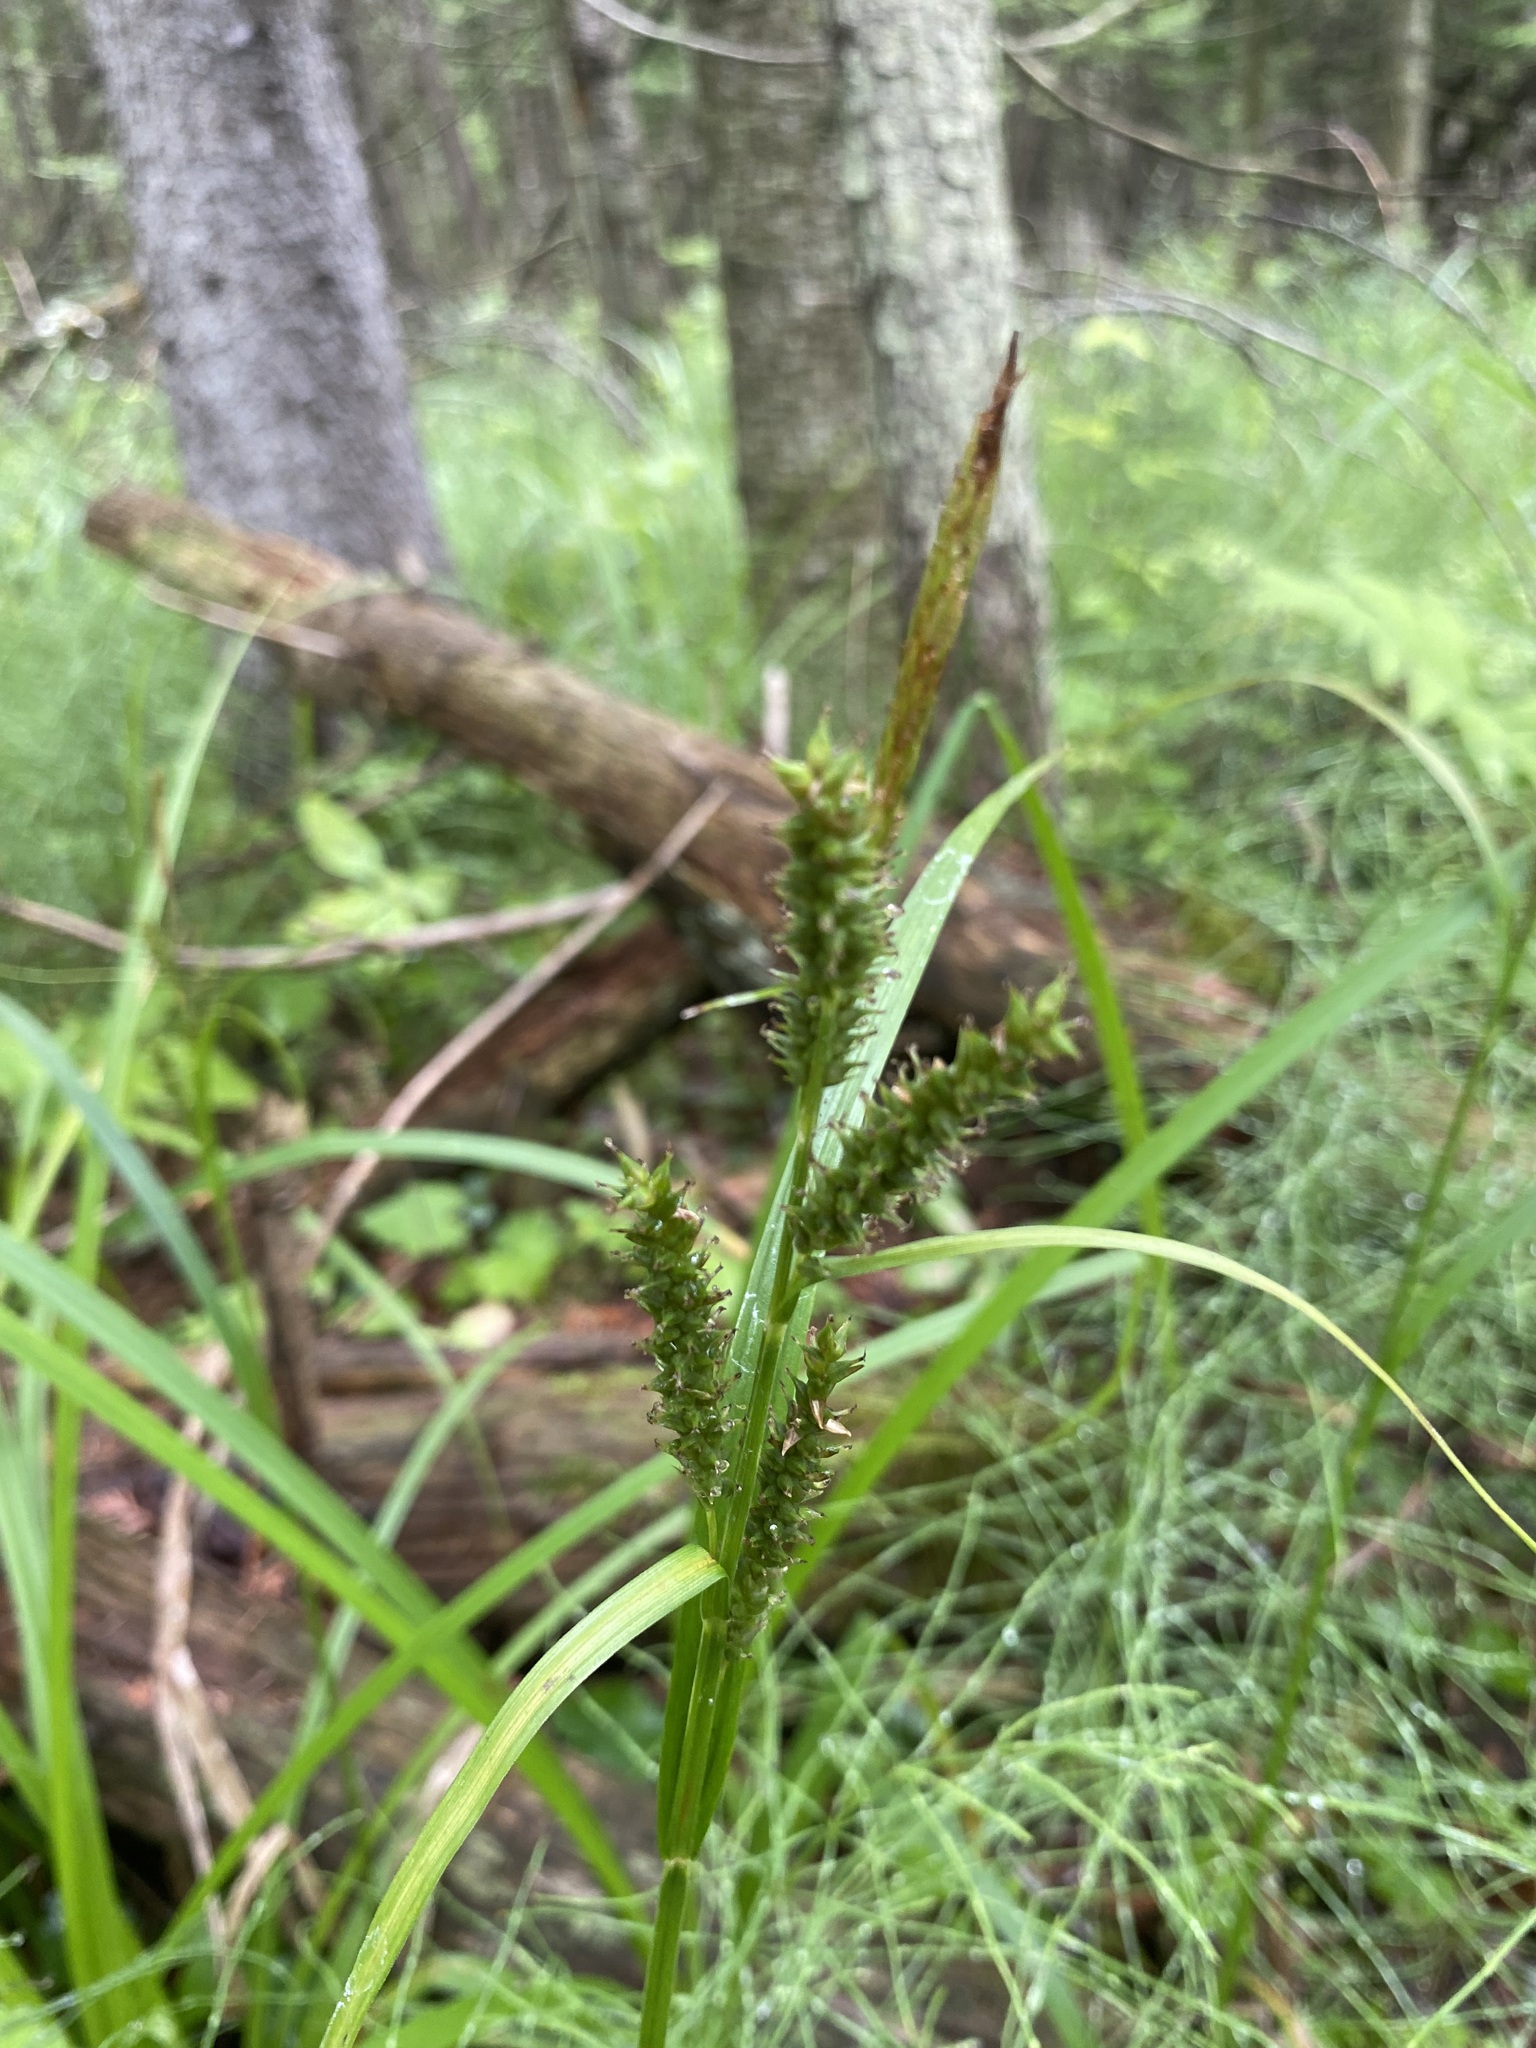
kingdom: Plantae
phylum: Tracheophyta
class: Liliopsida
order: Poales
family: Cyperaceae
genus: Carex
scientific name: Carex scabrata
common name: Eastern rough sedge
